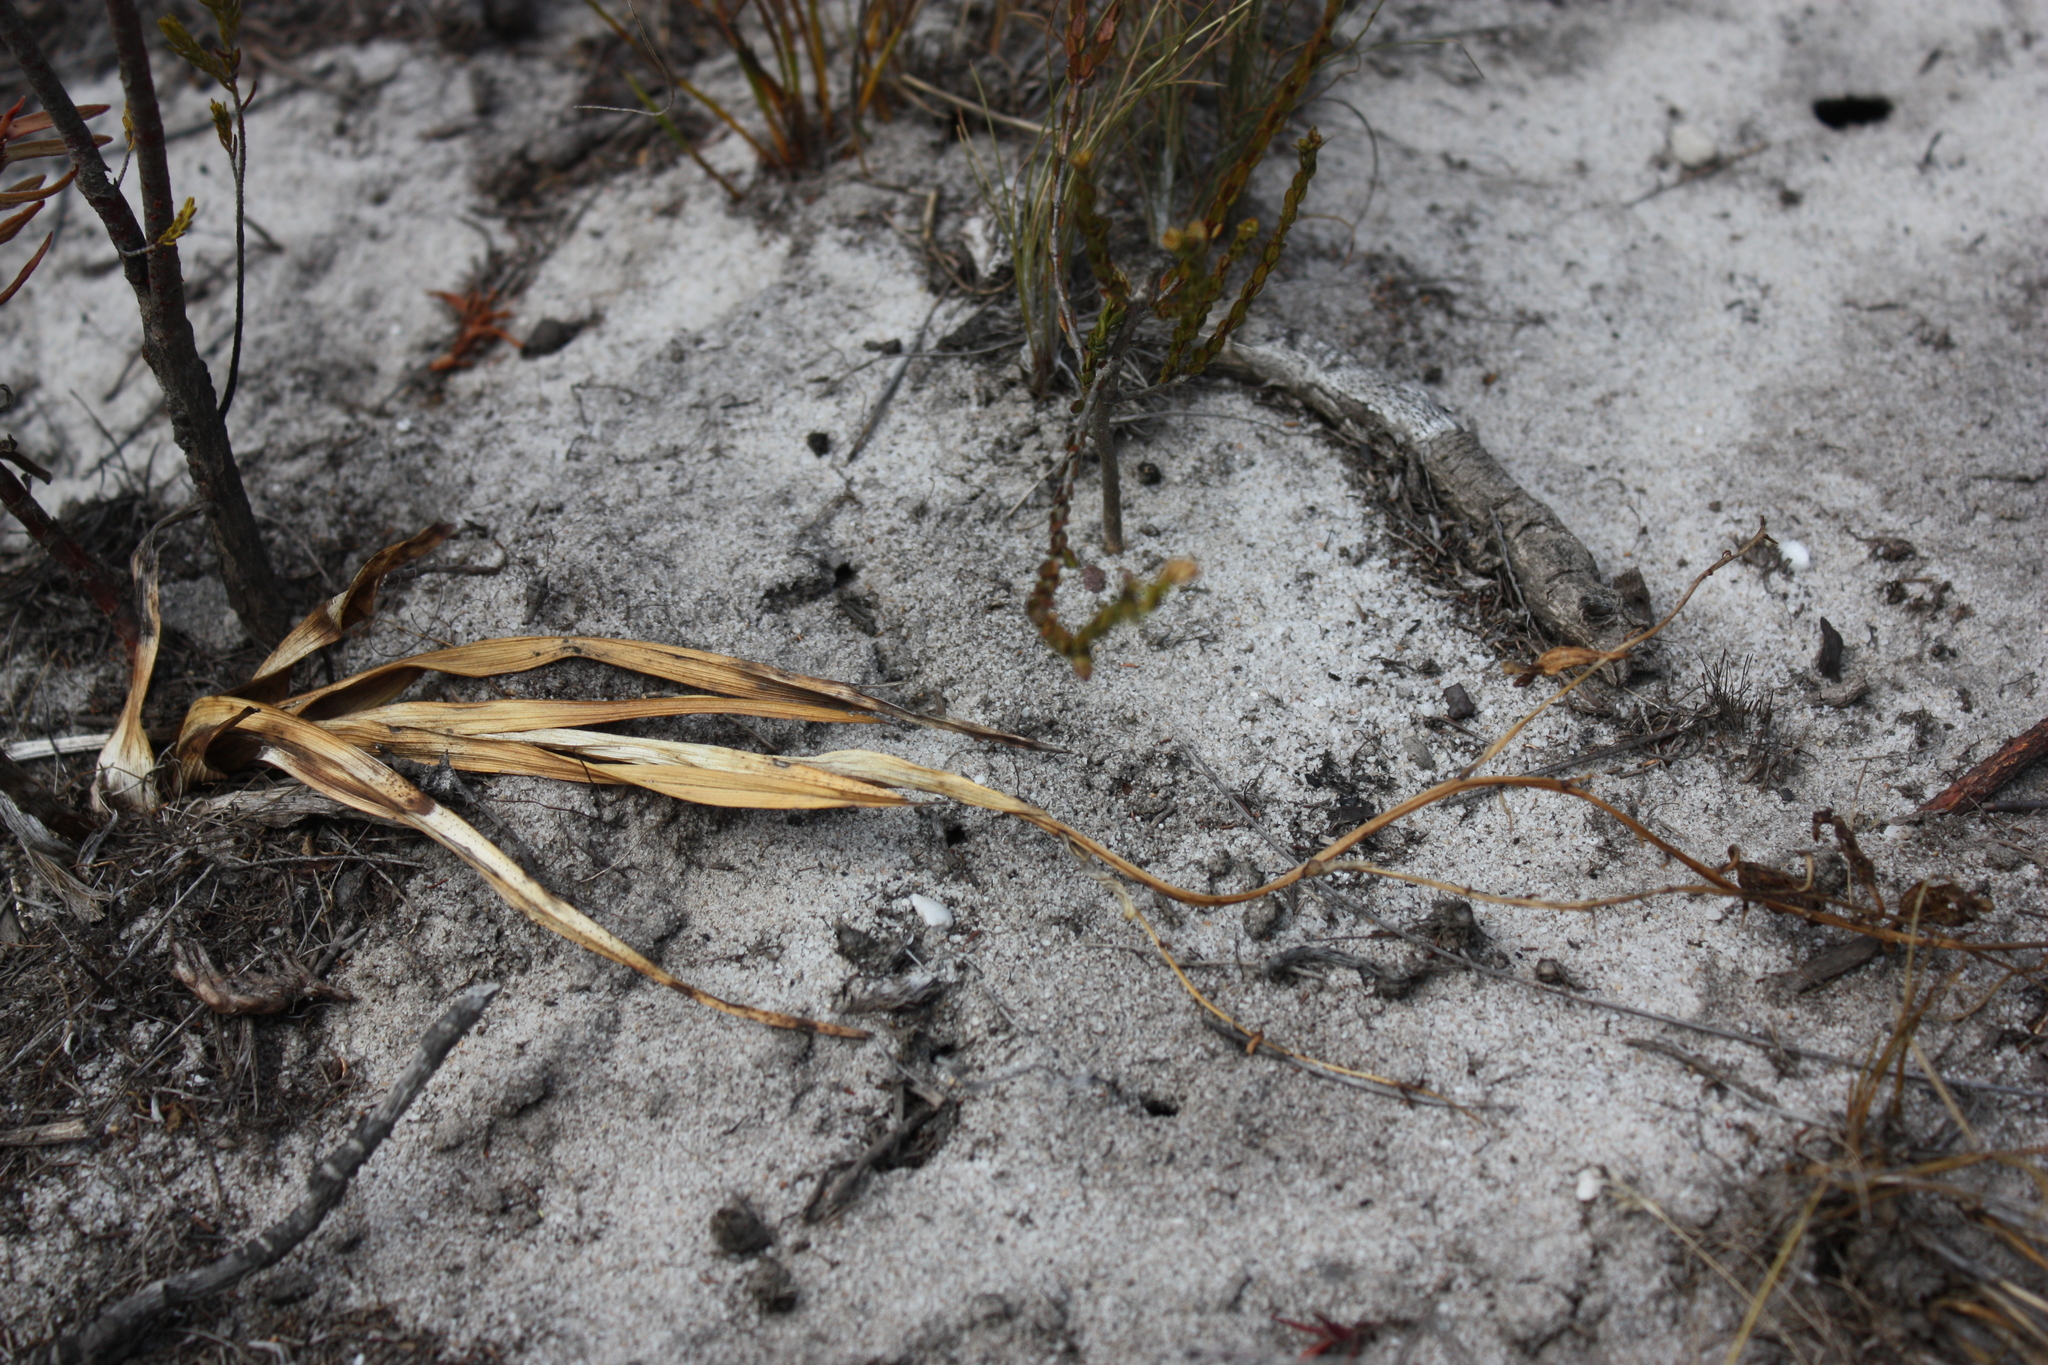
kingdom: Plantae
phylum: Tracheophyta
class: Liliopsida
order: Asparagales
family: Orchidaceae
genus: Eulophia
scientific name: Eulophia lamellata
